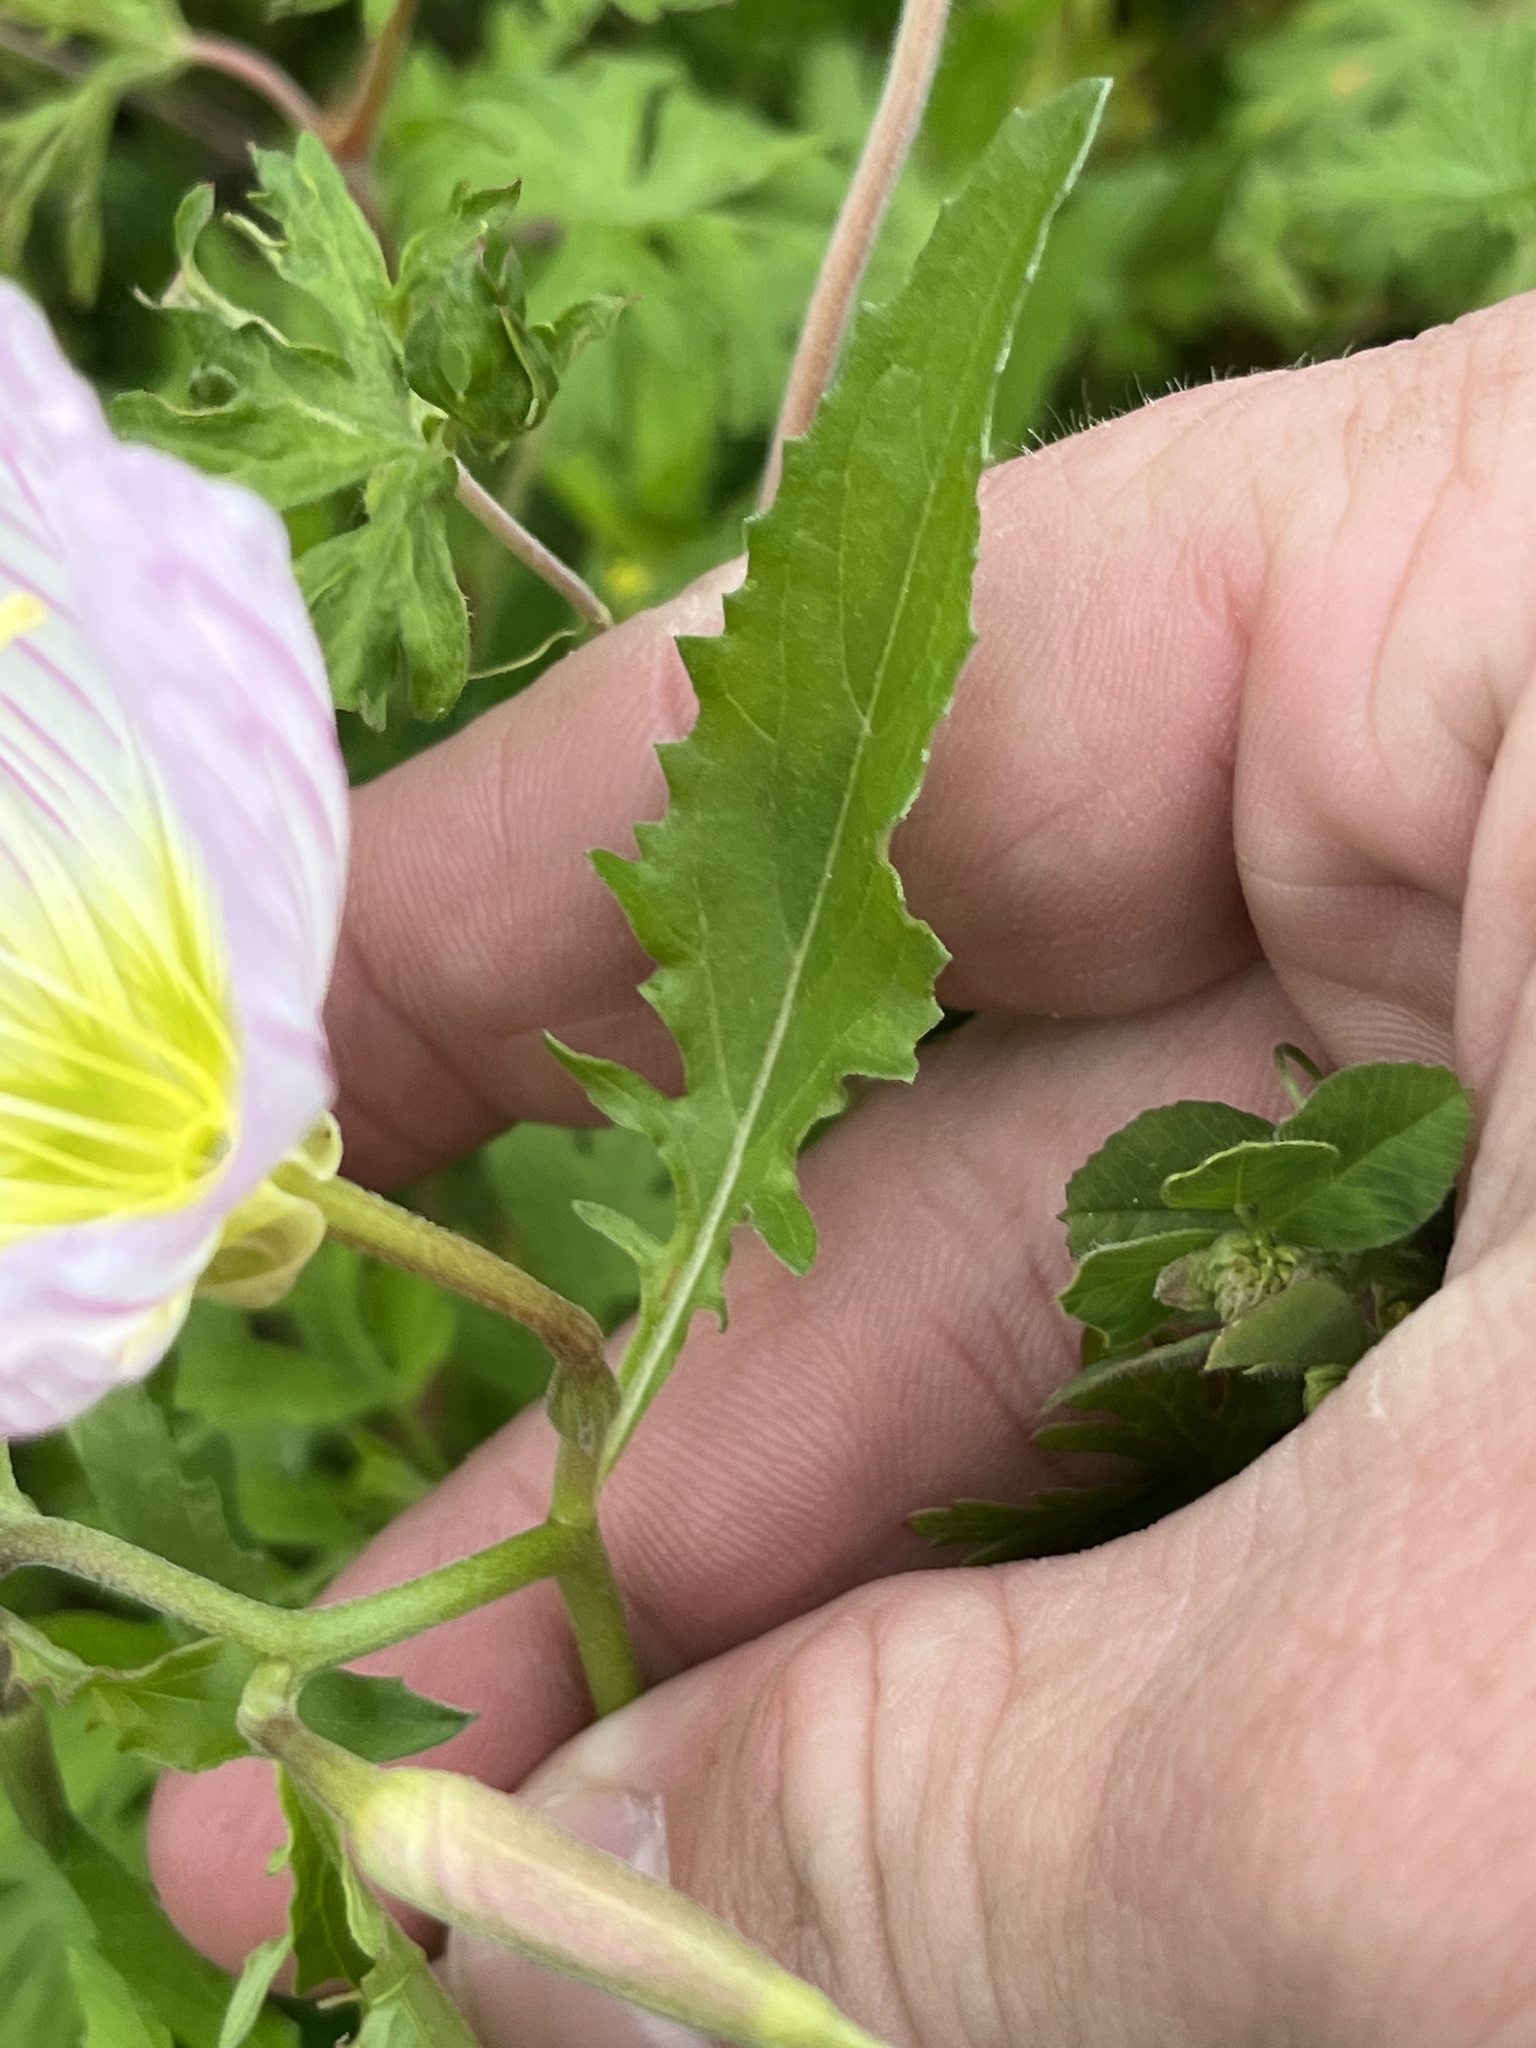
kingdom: Plantae
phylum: Tracheophyta
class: Magnoliopsida
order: Myrtales
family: Onagraceae
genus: Oenothera
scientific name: Oenothera speciosa
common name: White evening-primrose
